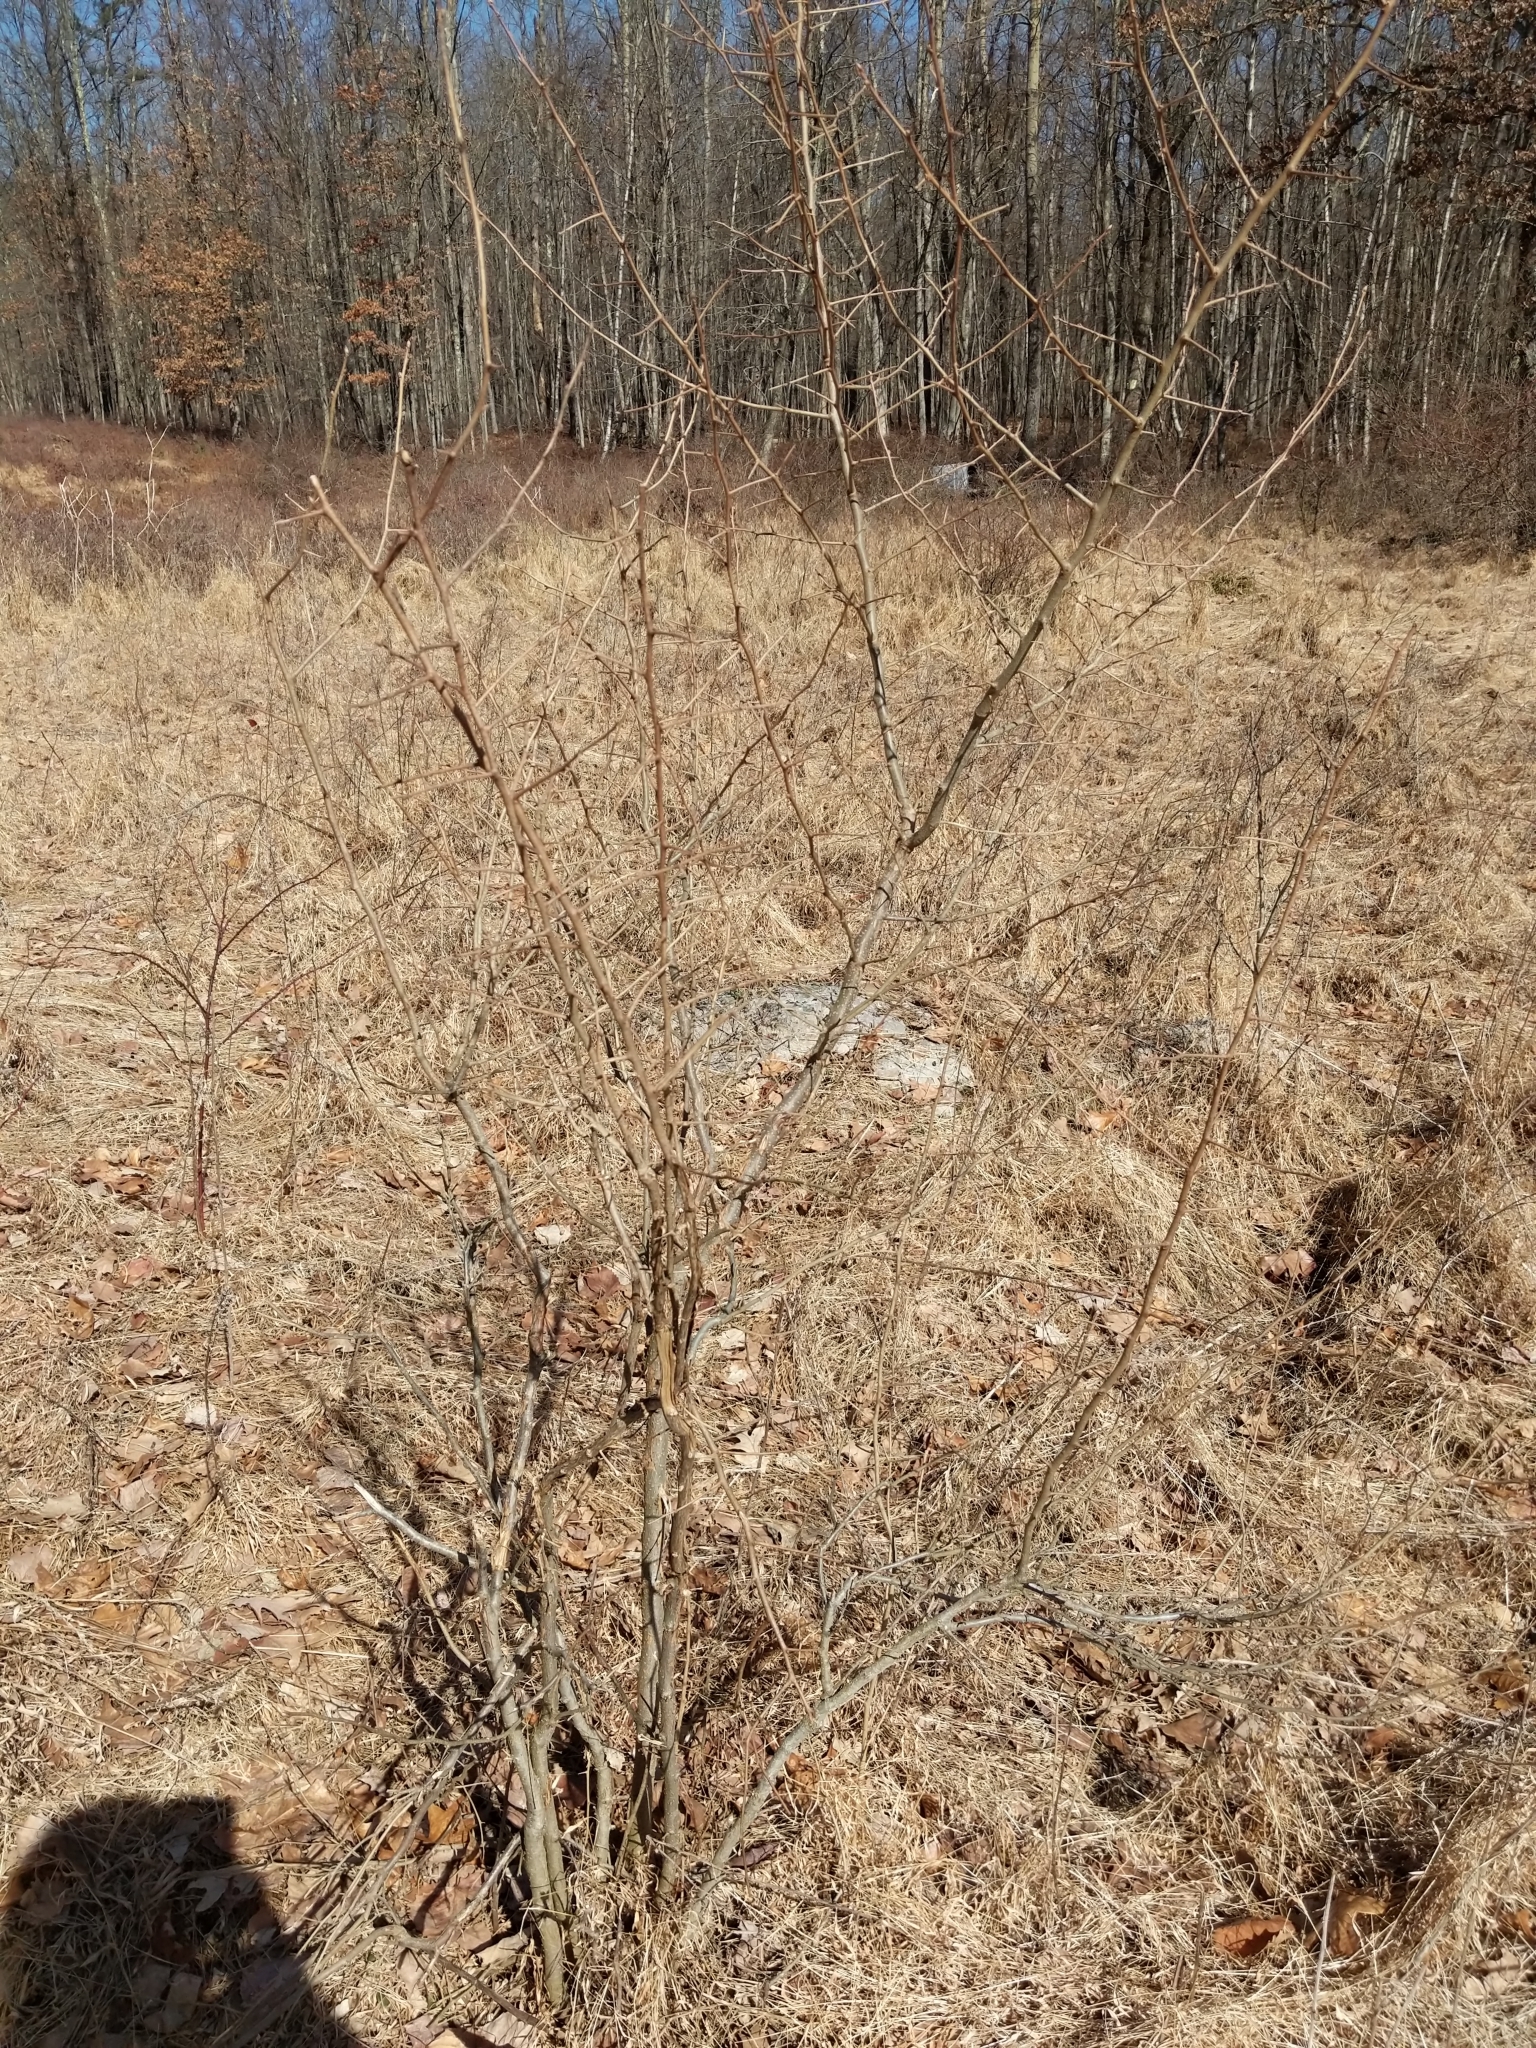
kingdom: Plantae
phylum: Tracheophyta
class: Magnoliopsida
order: Rosales
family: Elaeagnaceae
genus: Elaeagnus
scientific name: Elaeagnus umbellata
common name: Autumn olive
